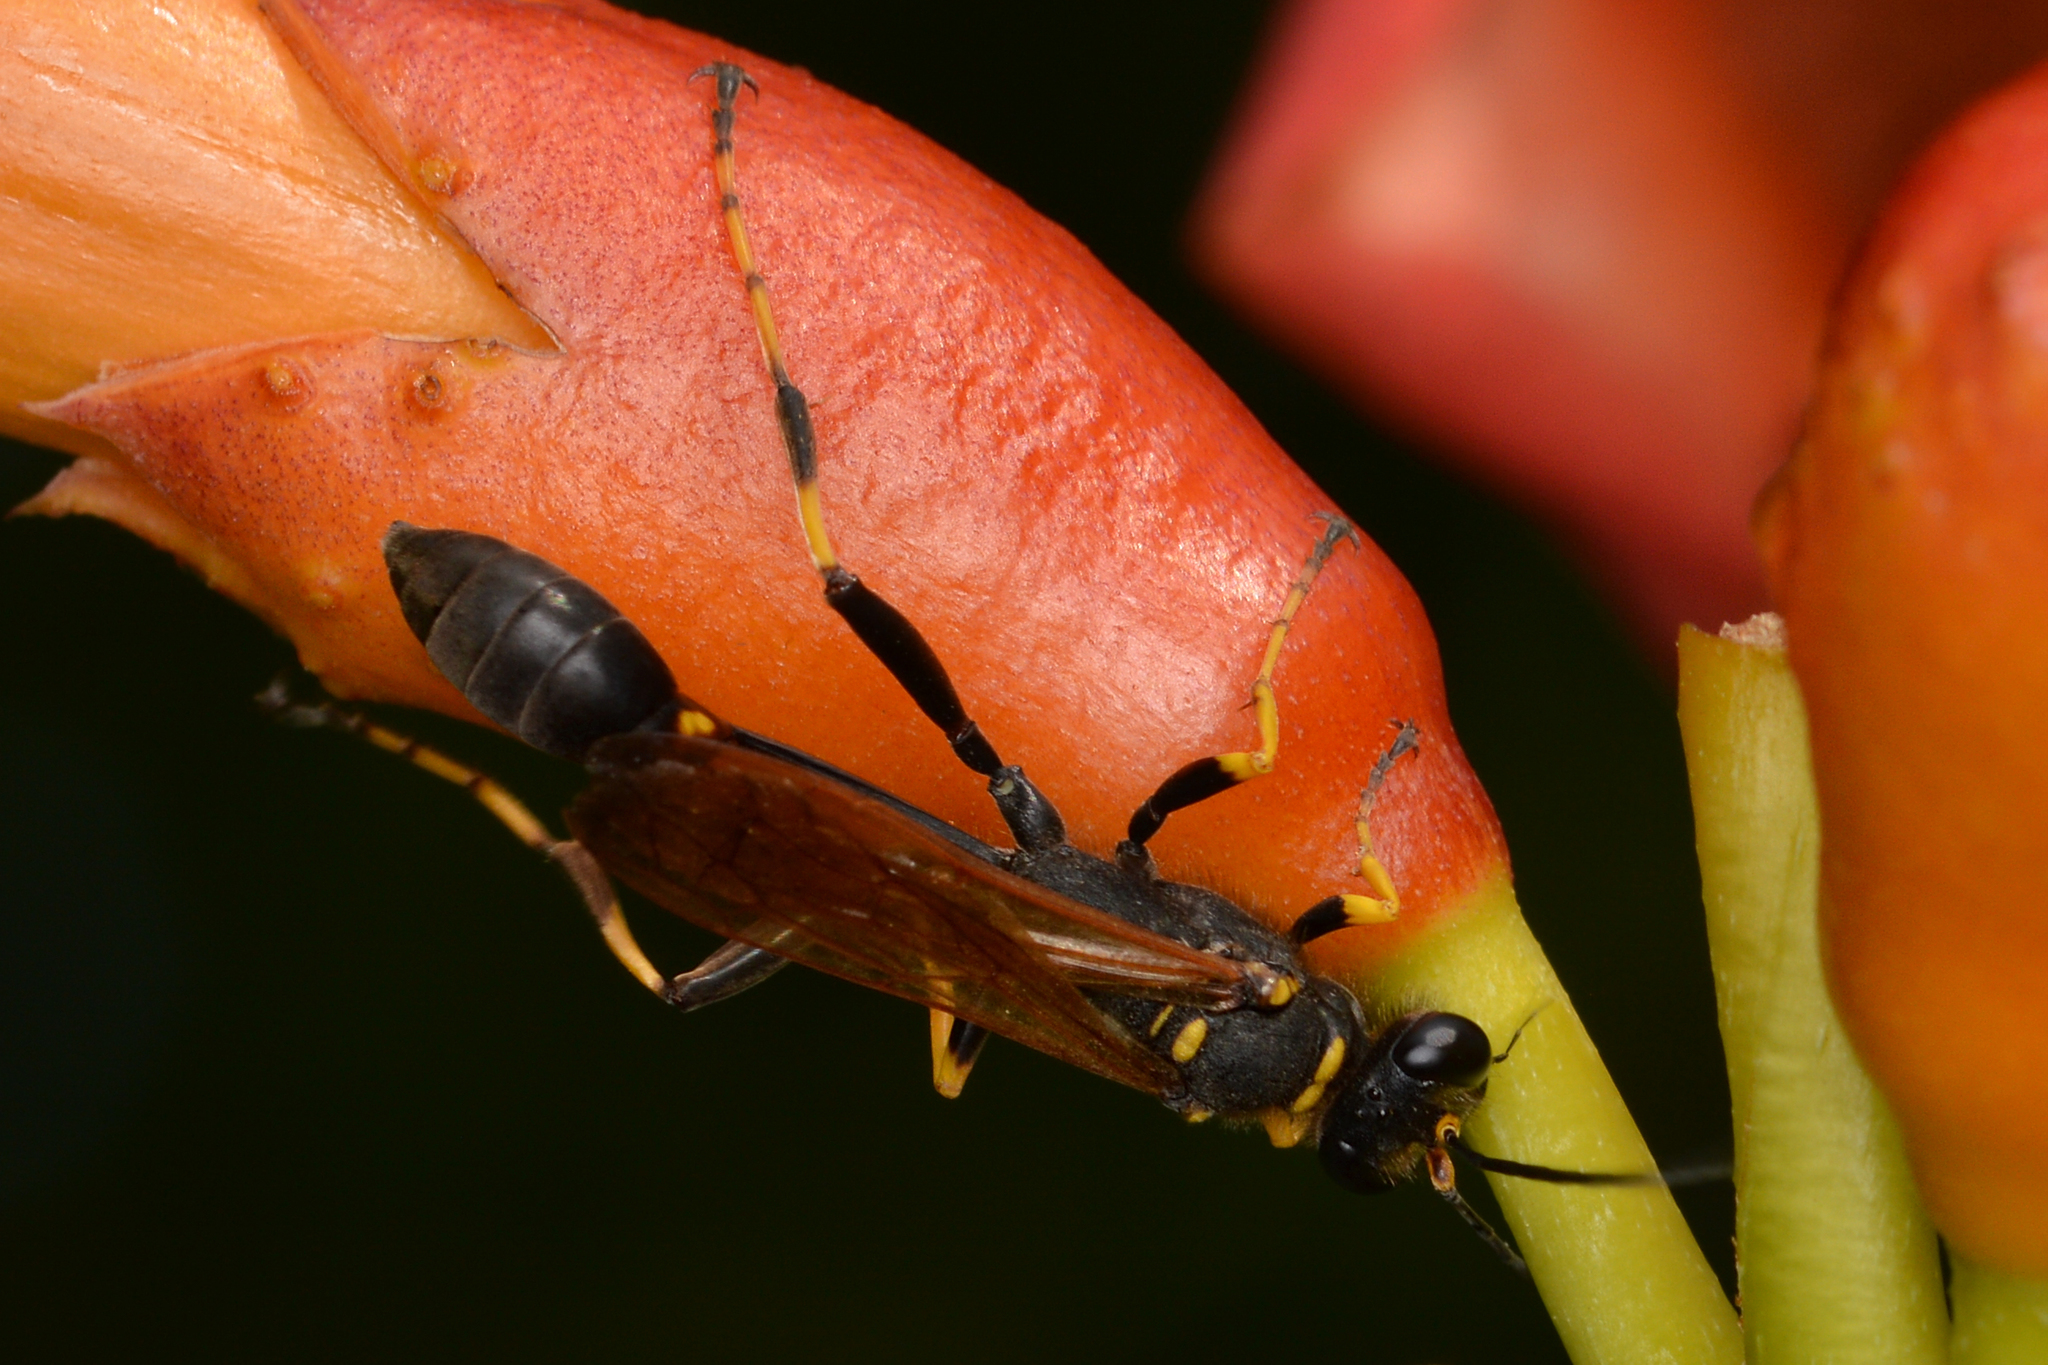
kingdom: Animalia
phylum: Arthropoda
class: Insecta
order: Hymenoptera
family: Sphecidae
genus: Sceliphron
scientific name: Sceliphron caementarium
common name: Mud dauber
